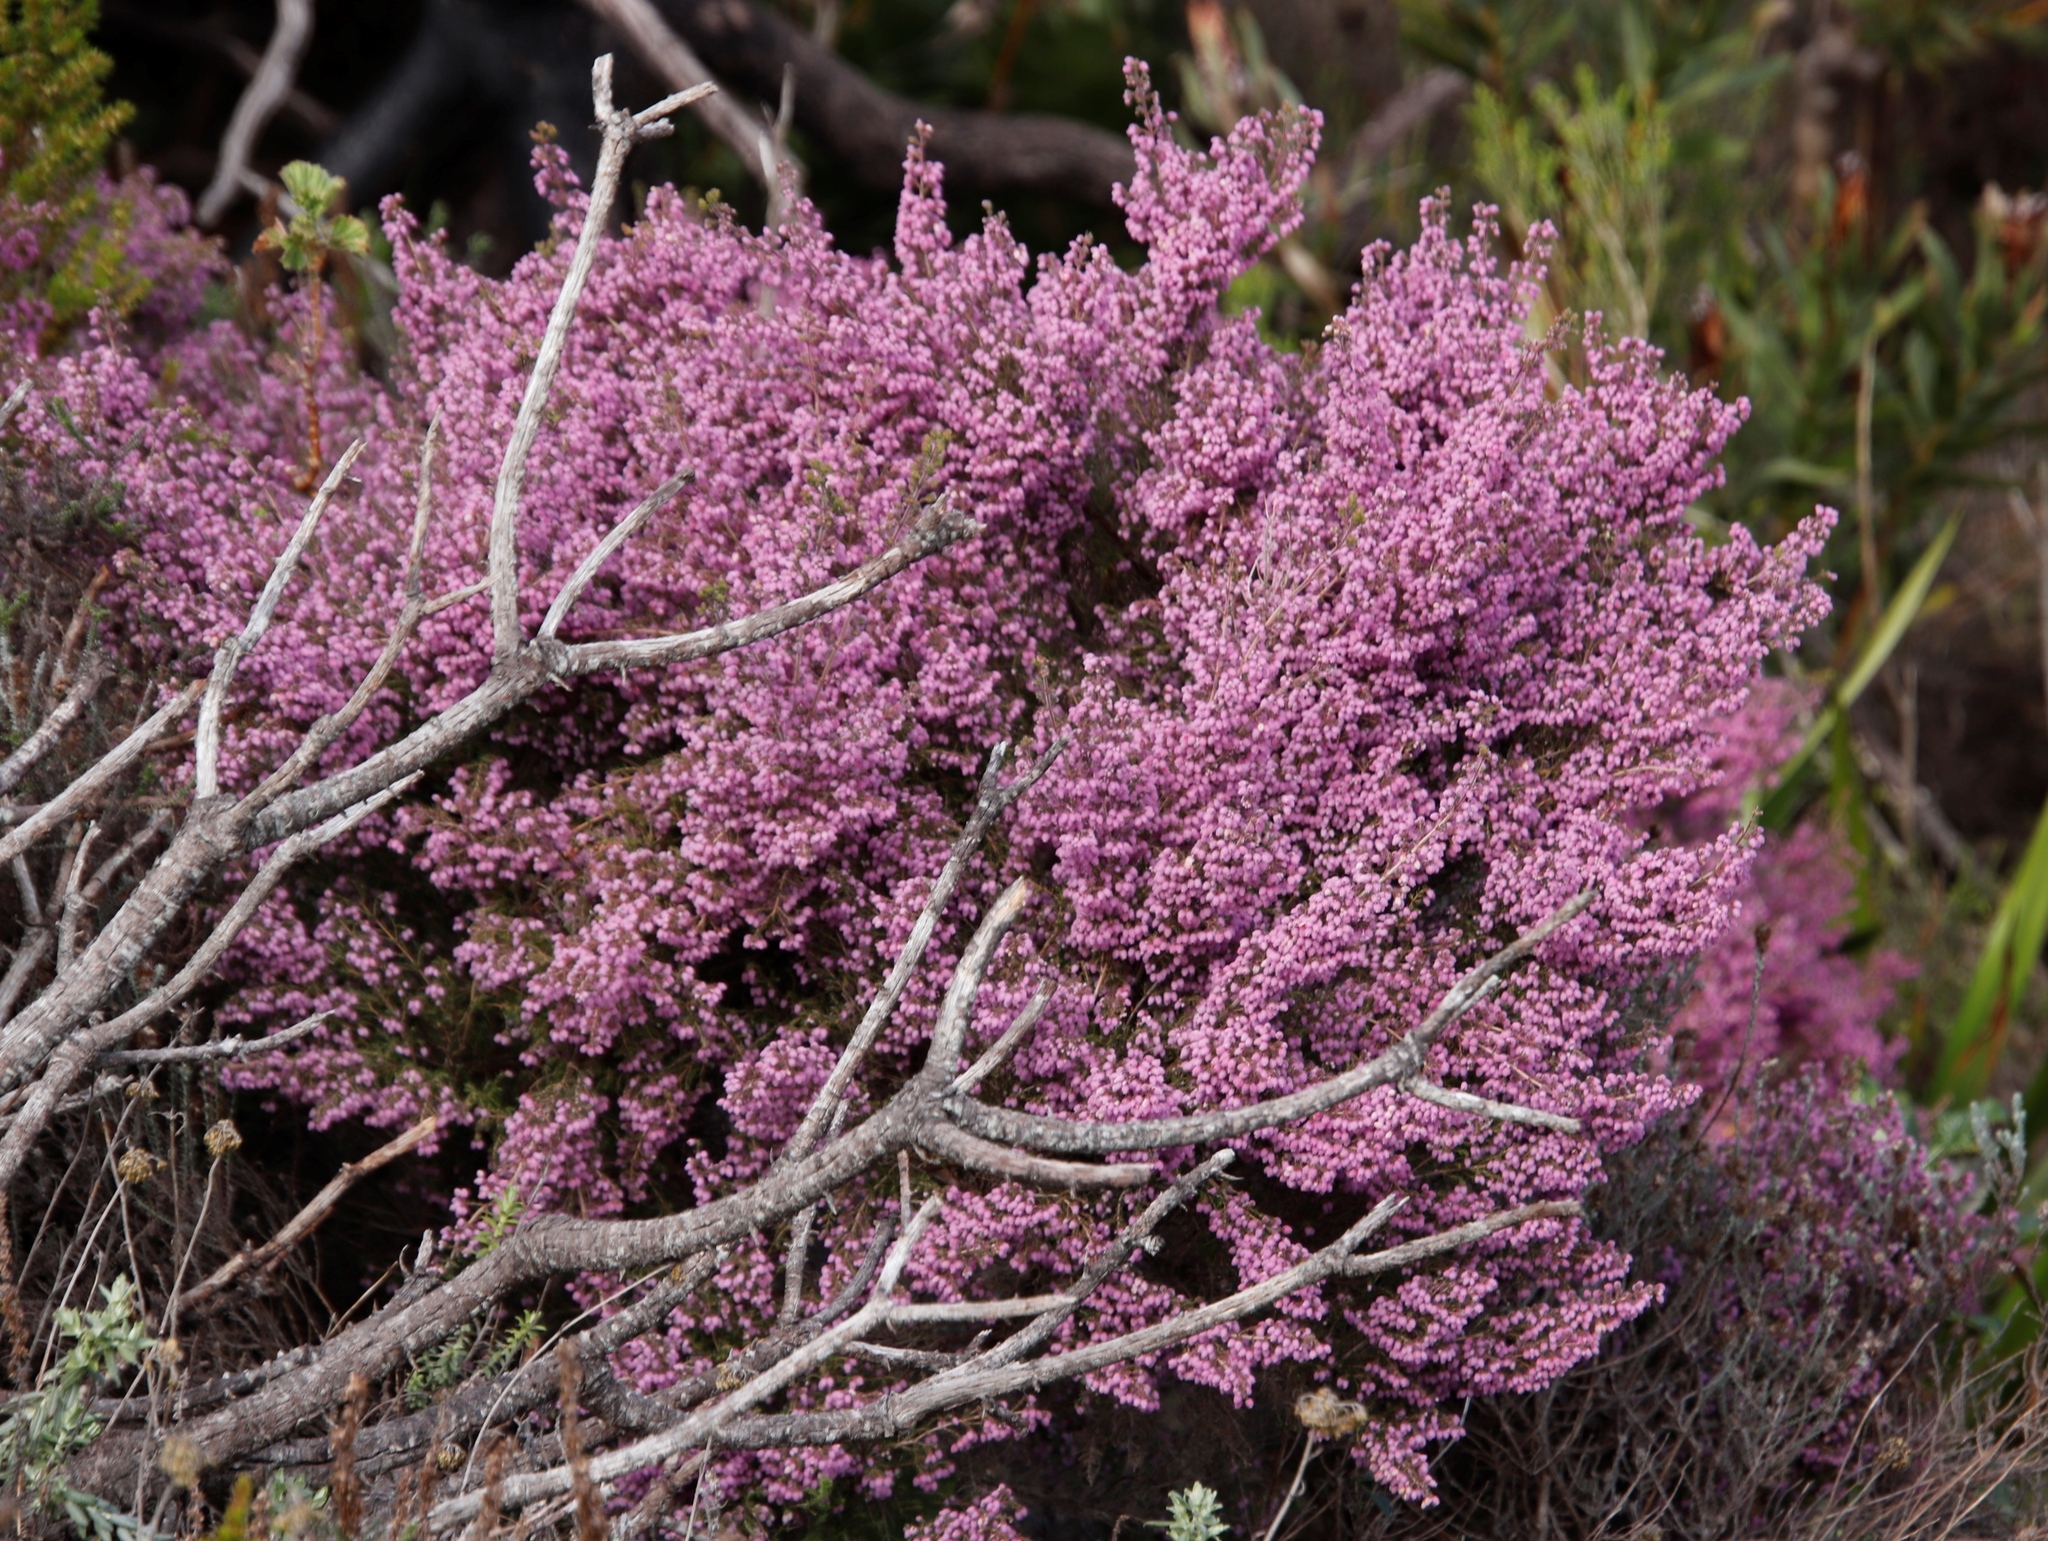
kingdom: Plantae
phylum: Tracheophyta
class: Magnoliopsida
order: Ericales
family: Ericaceae
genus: Erica
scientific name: Erica hirtiflora
